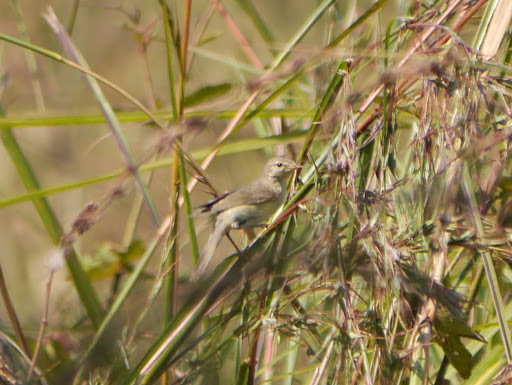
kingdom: Animalia
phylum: Chordata
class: Aves
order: Passeriformes
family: Phylloscopidae
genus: Phylloscopus
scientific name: Phylloscopus trochilus
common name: Willow warbler
